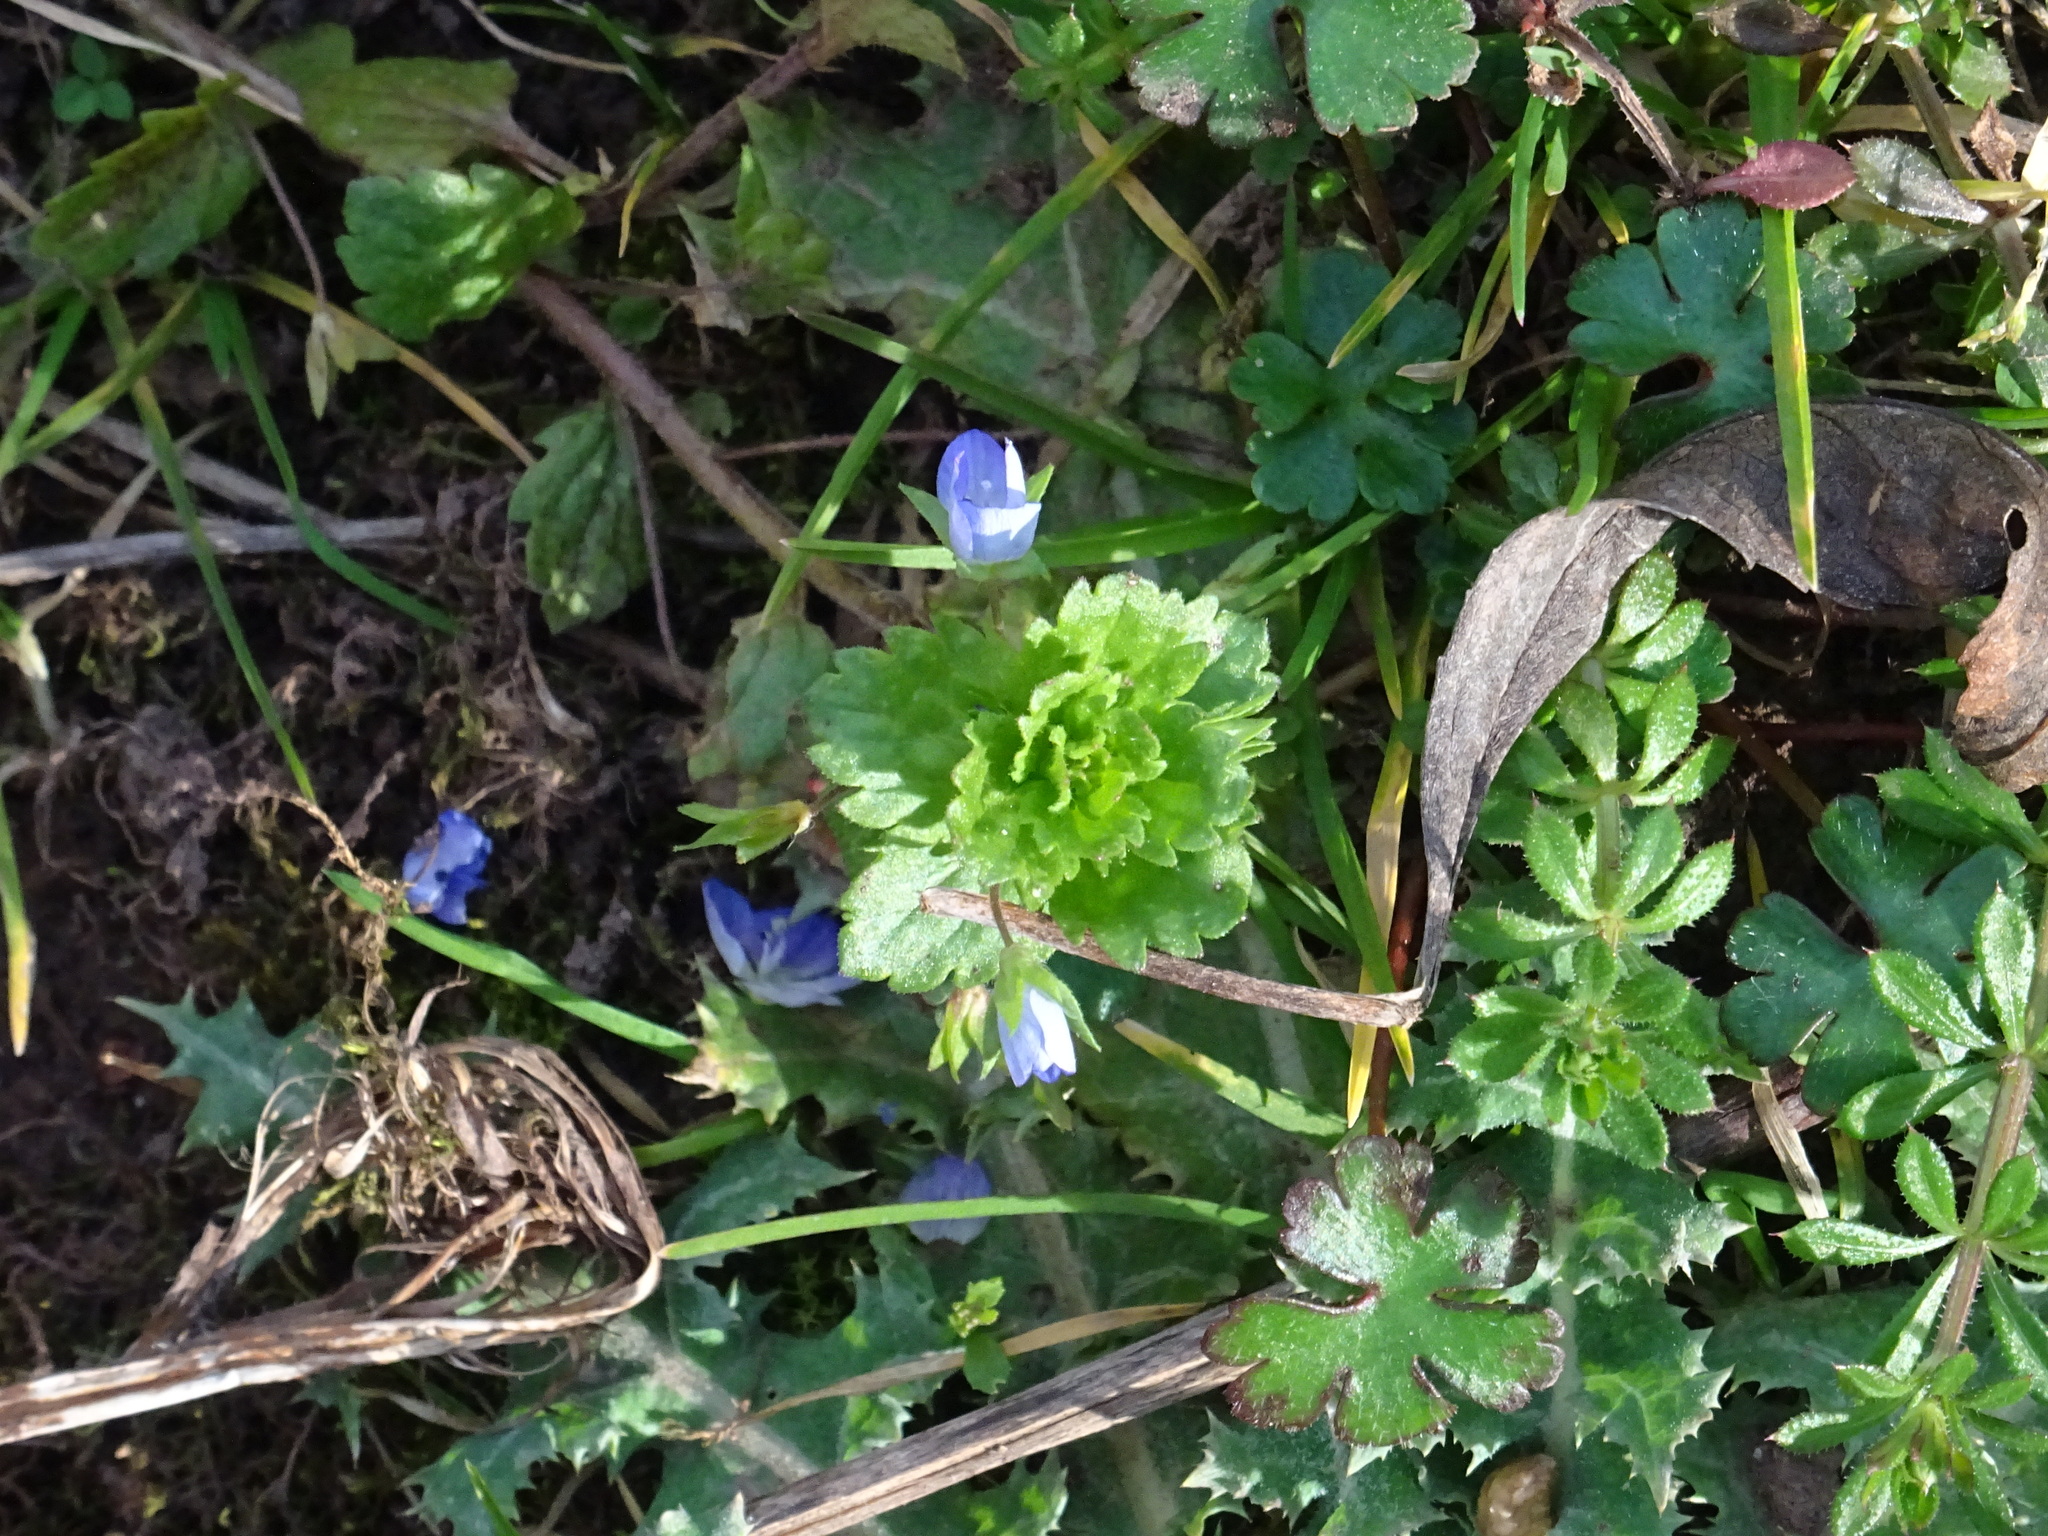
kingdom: Plantae
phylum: Tracheophyta
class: Magnoliopsida
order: Lamiales
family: Plantaginaceae
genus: Veronica
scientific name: Veronica persica
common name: Common field-speedwell
